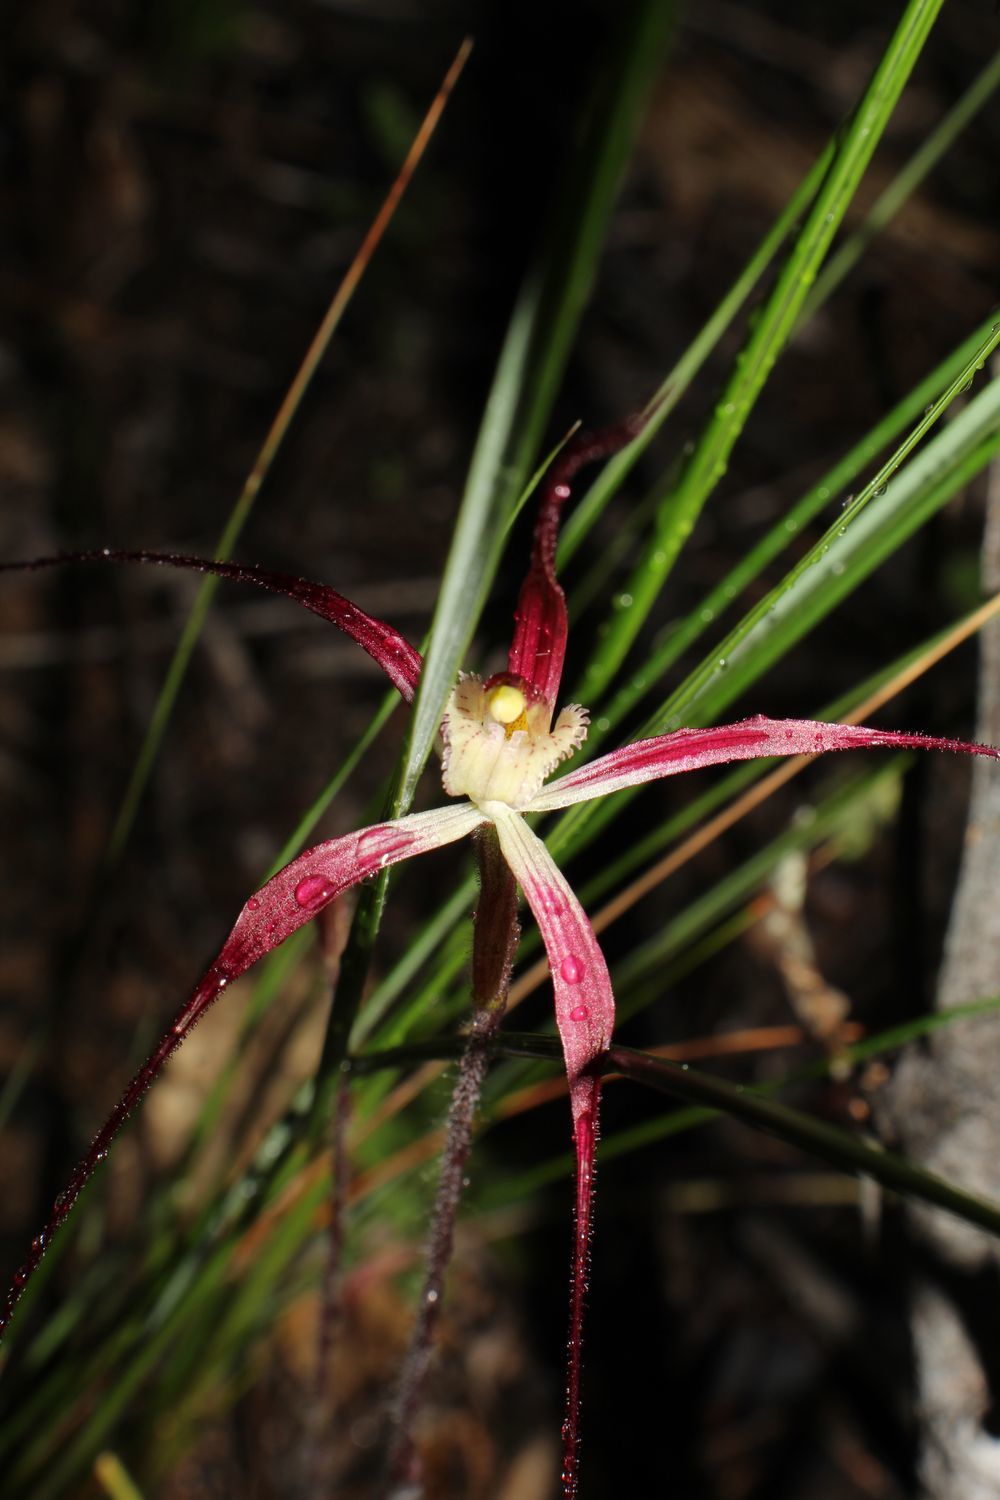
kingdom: Plantae
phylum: Tracheophyta
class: Liliopsida
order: Asparagales
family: Orchidaceae
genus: Caladenia
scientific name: Caladenia polychroma
